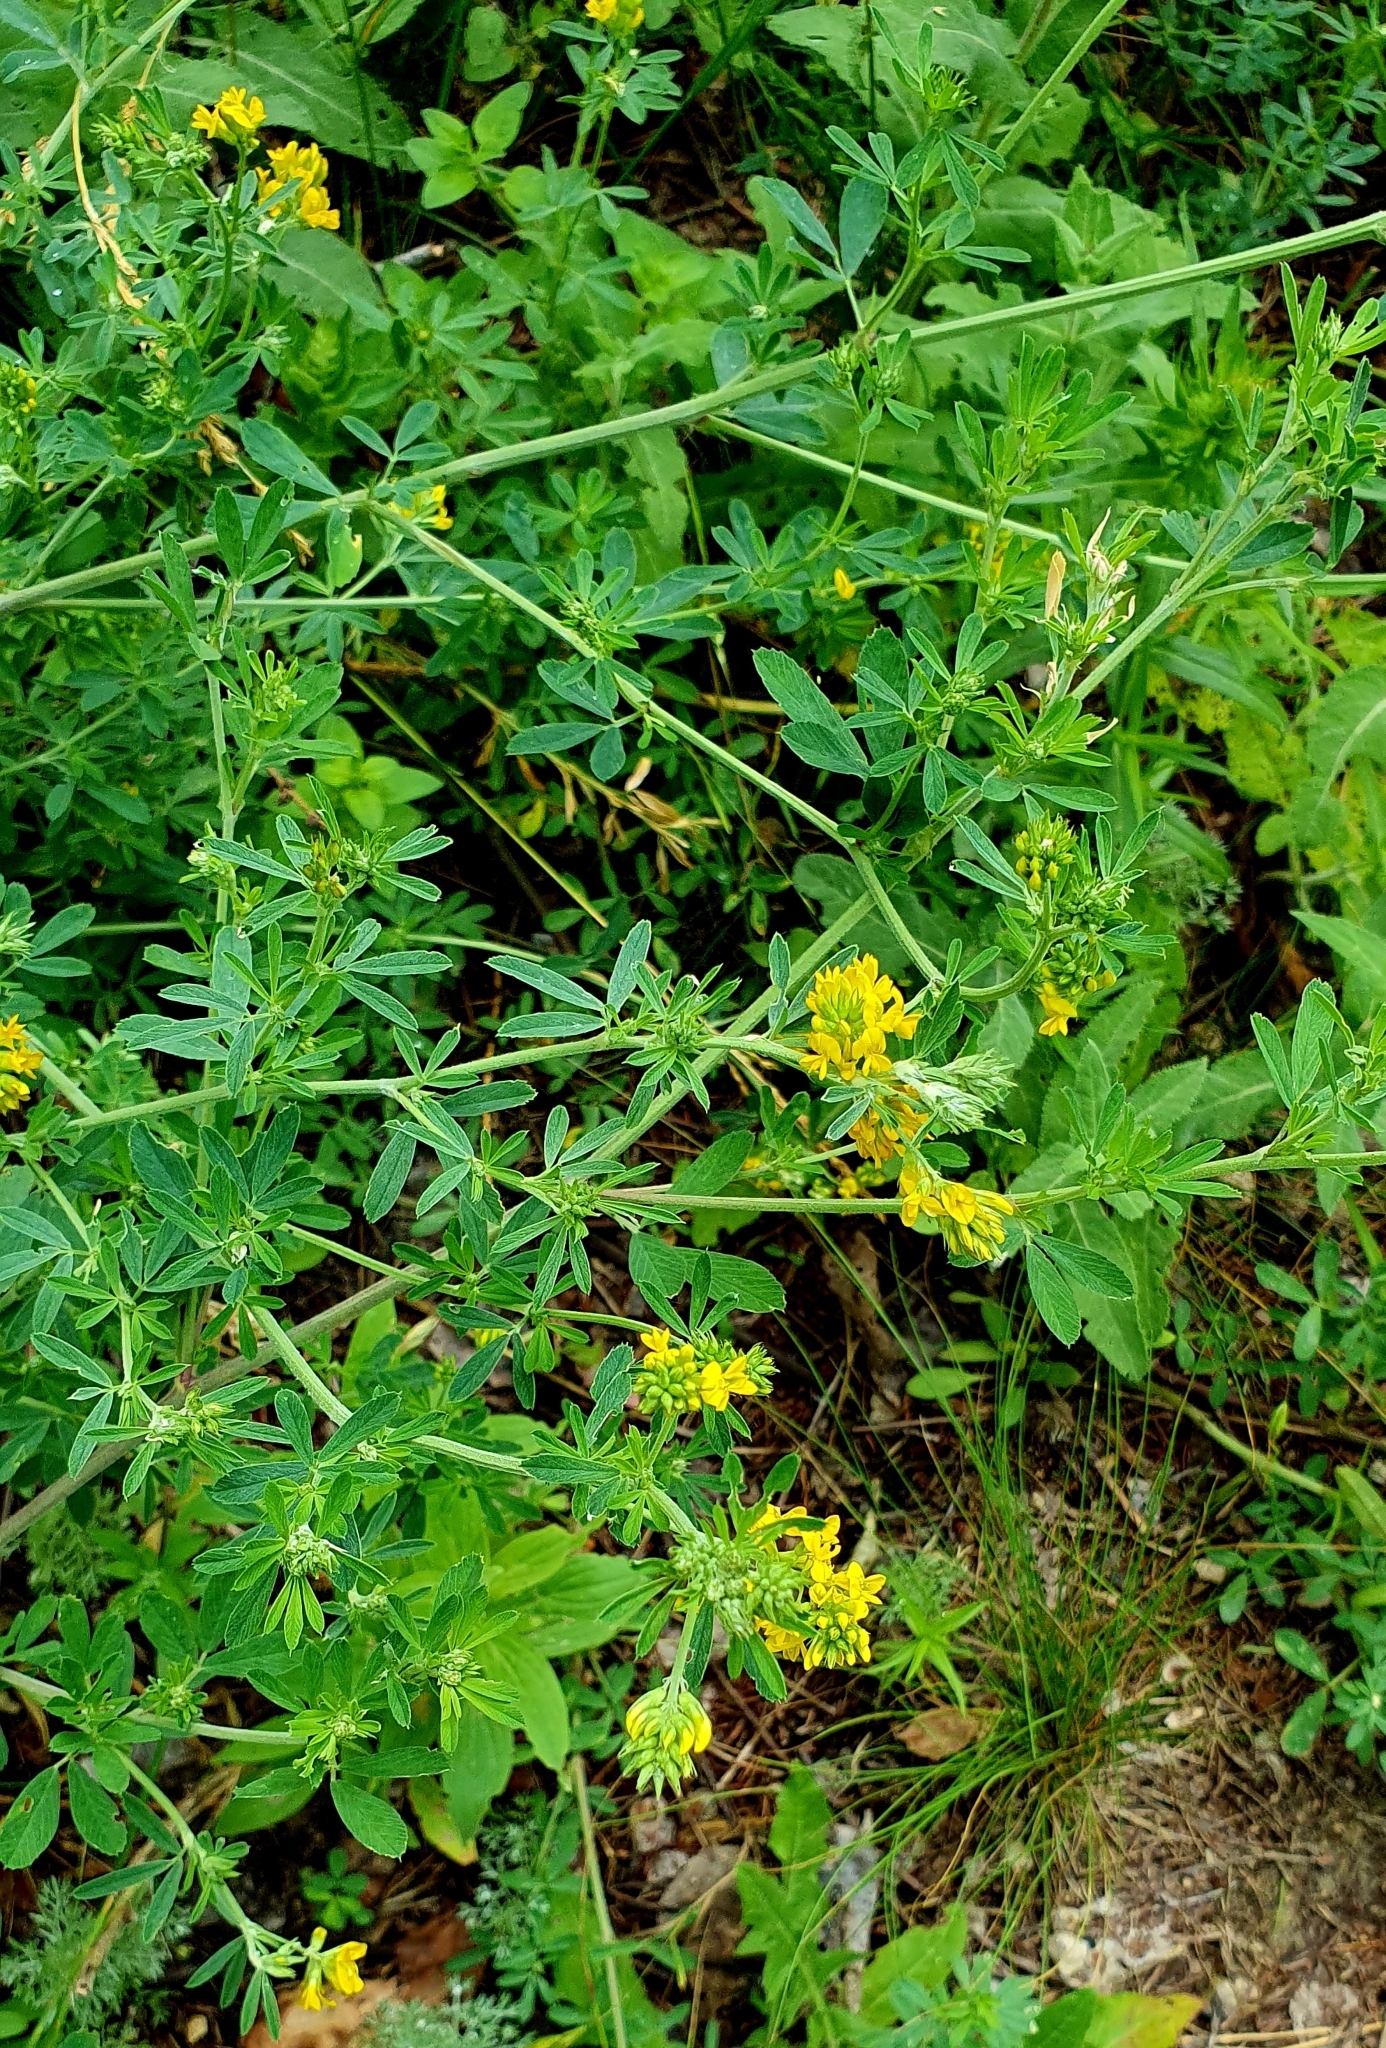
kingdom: Plantae
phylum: Tracheophyta
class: Magnoliopsida
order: Fabales
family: Fabaceae
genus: Medicago
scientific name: Medicago falcata
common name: Sickle medick
